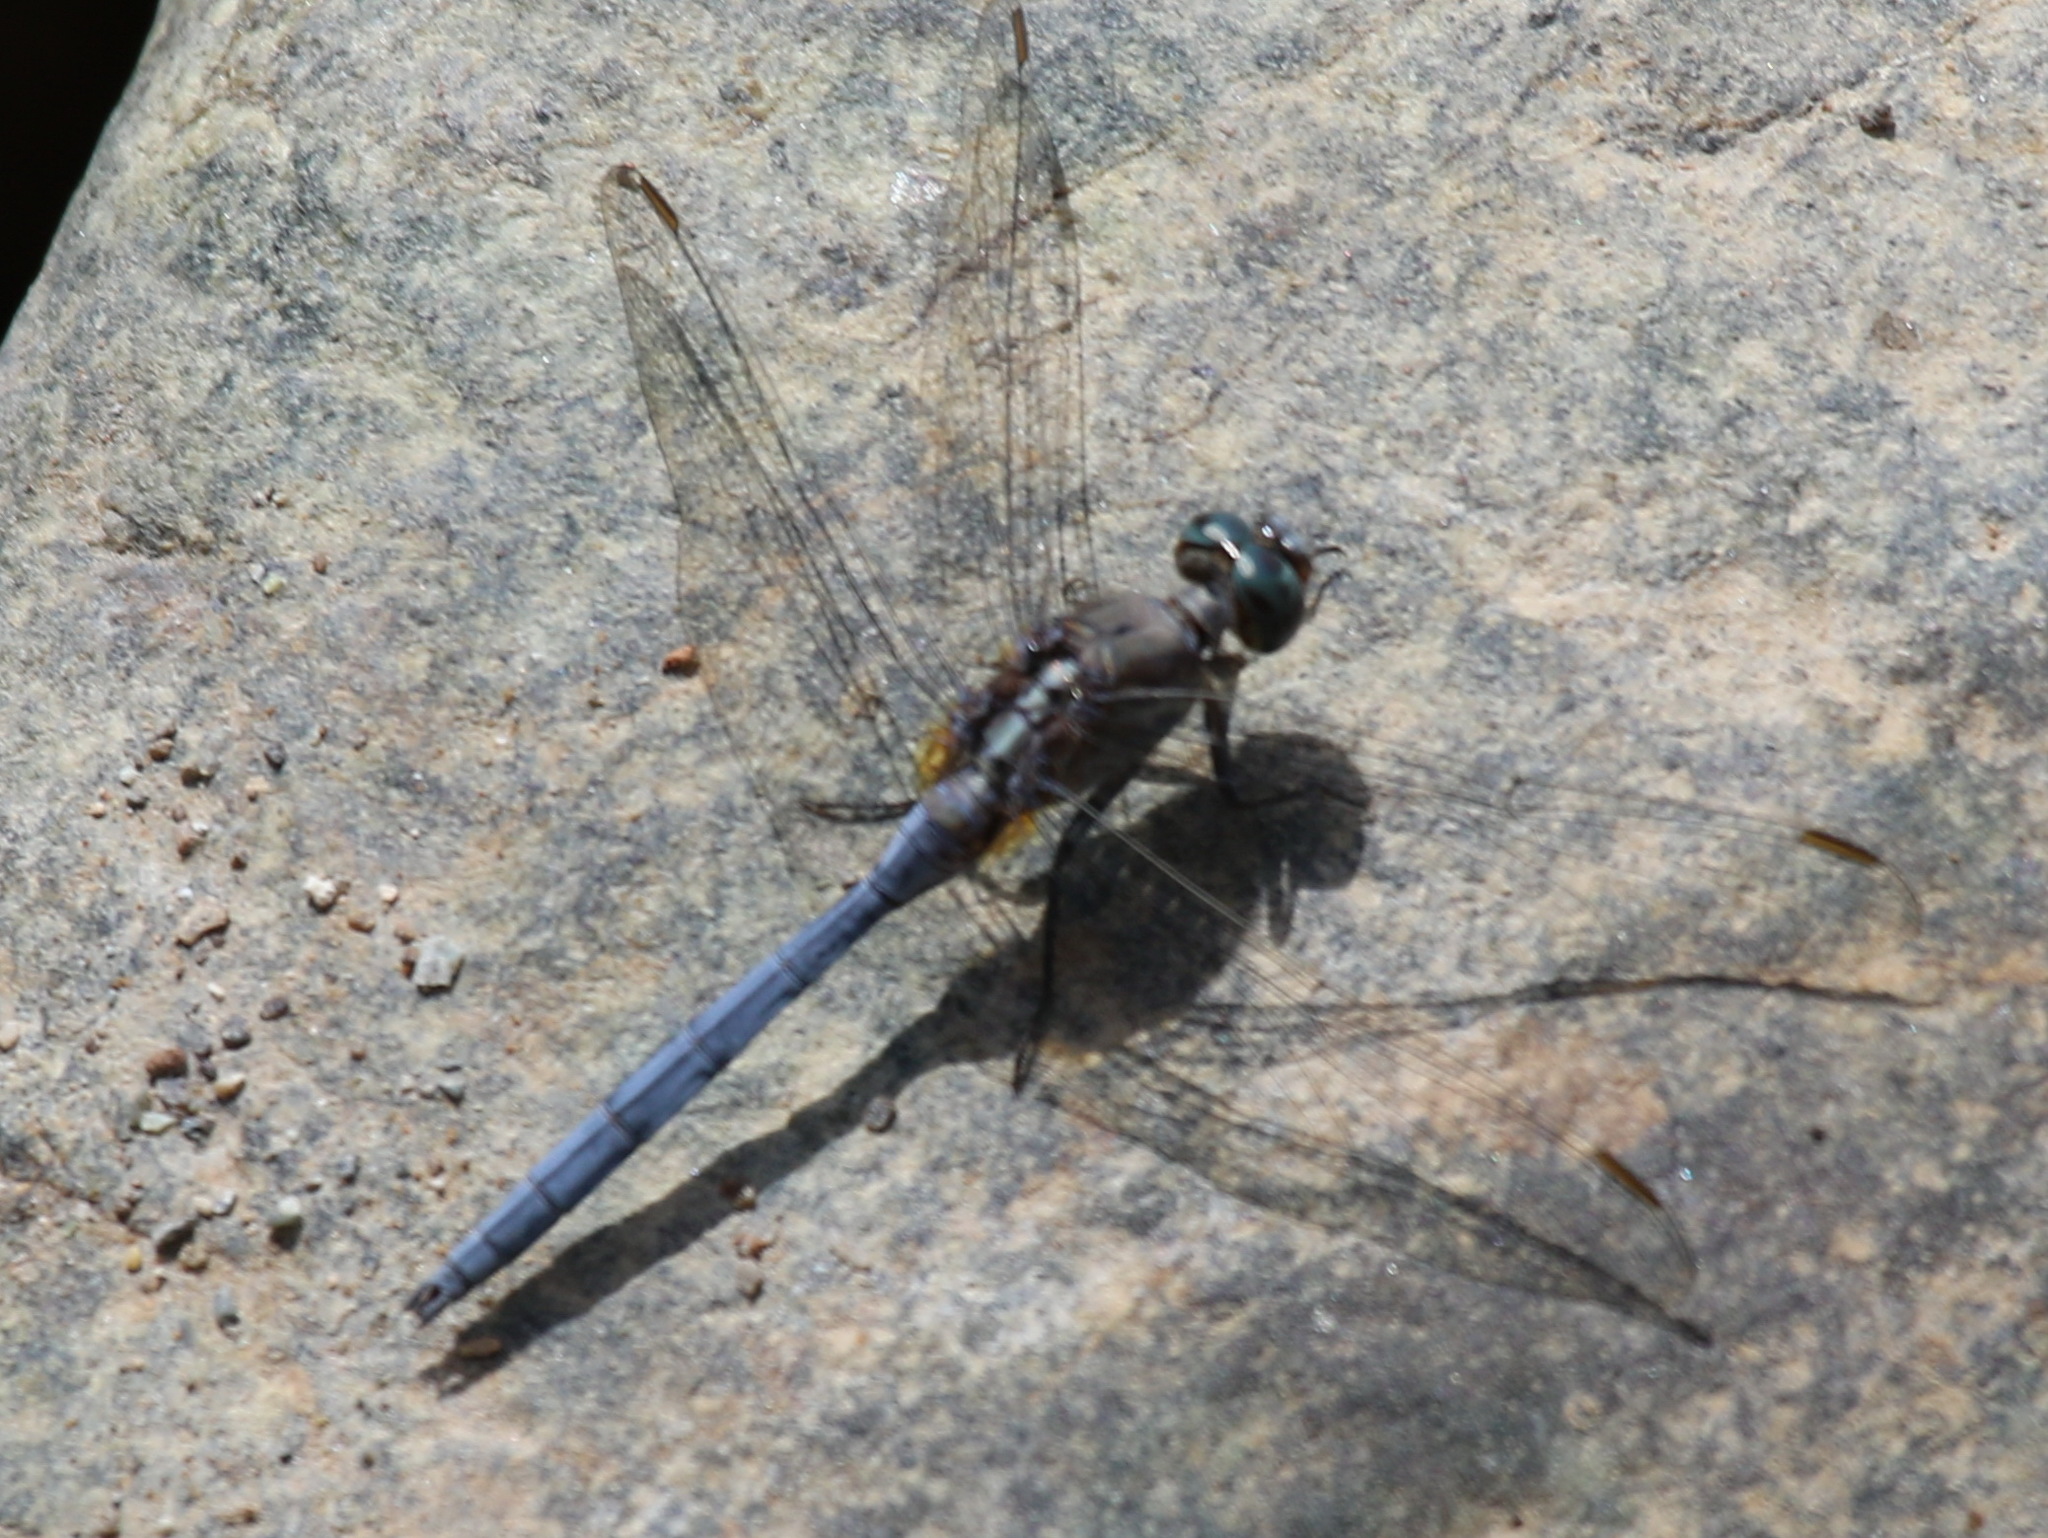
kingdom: Animalia
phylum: Arthropoda
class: Insecta
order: Odonata
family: Libellulidae
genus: Orthetrum
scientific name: Orthetrum chrysostigma
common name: Epaulet skimmer
